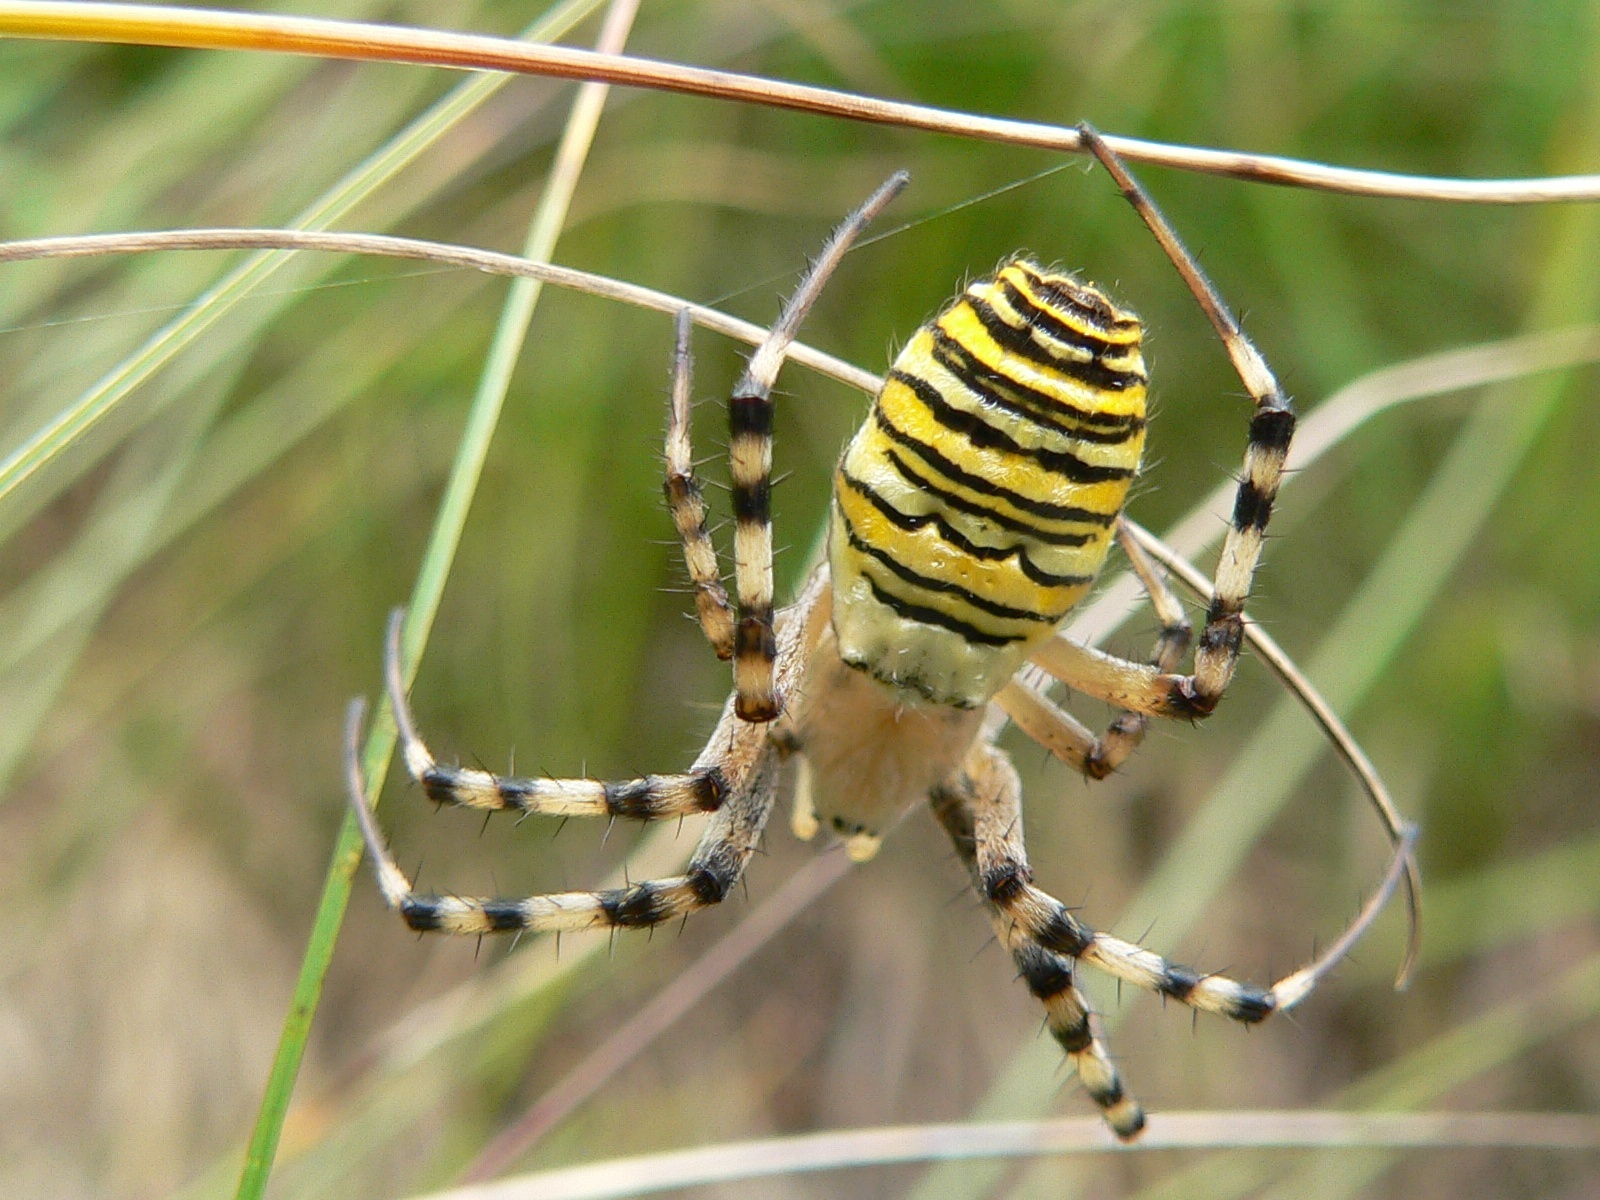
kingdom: Animalia
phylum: Arthropoda
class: Arachnida
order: Araneae
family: Araneidae
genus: Argiope
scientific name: Argiope bruennichi
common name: Wasp spider
